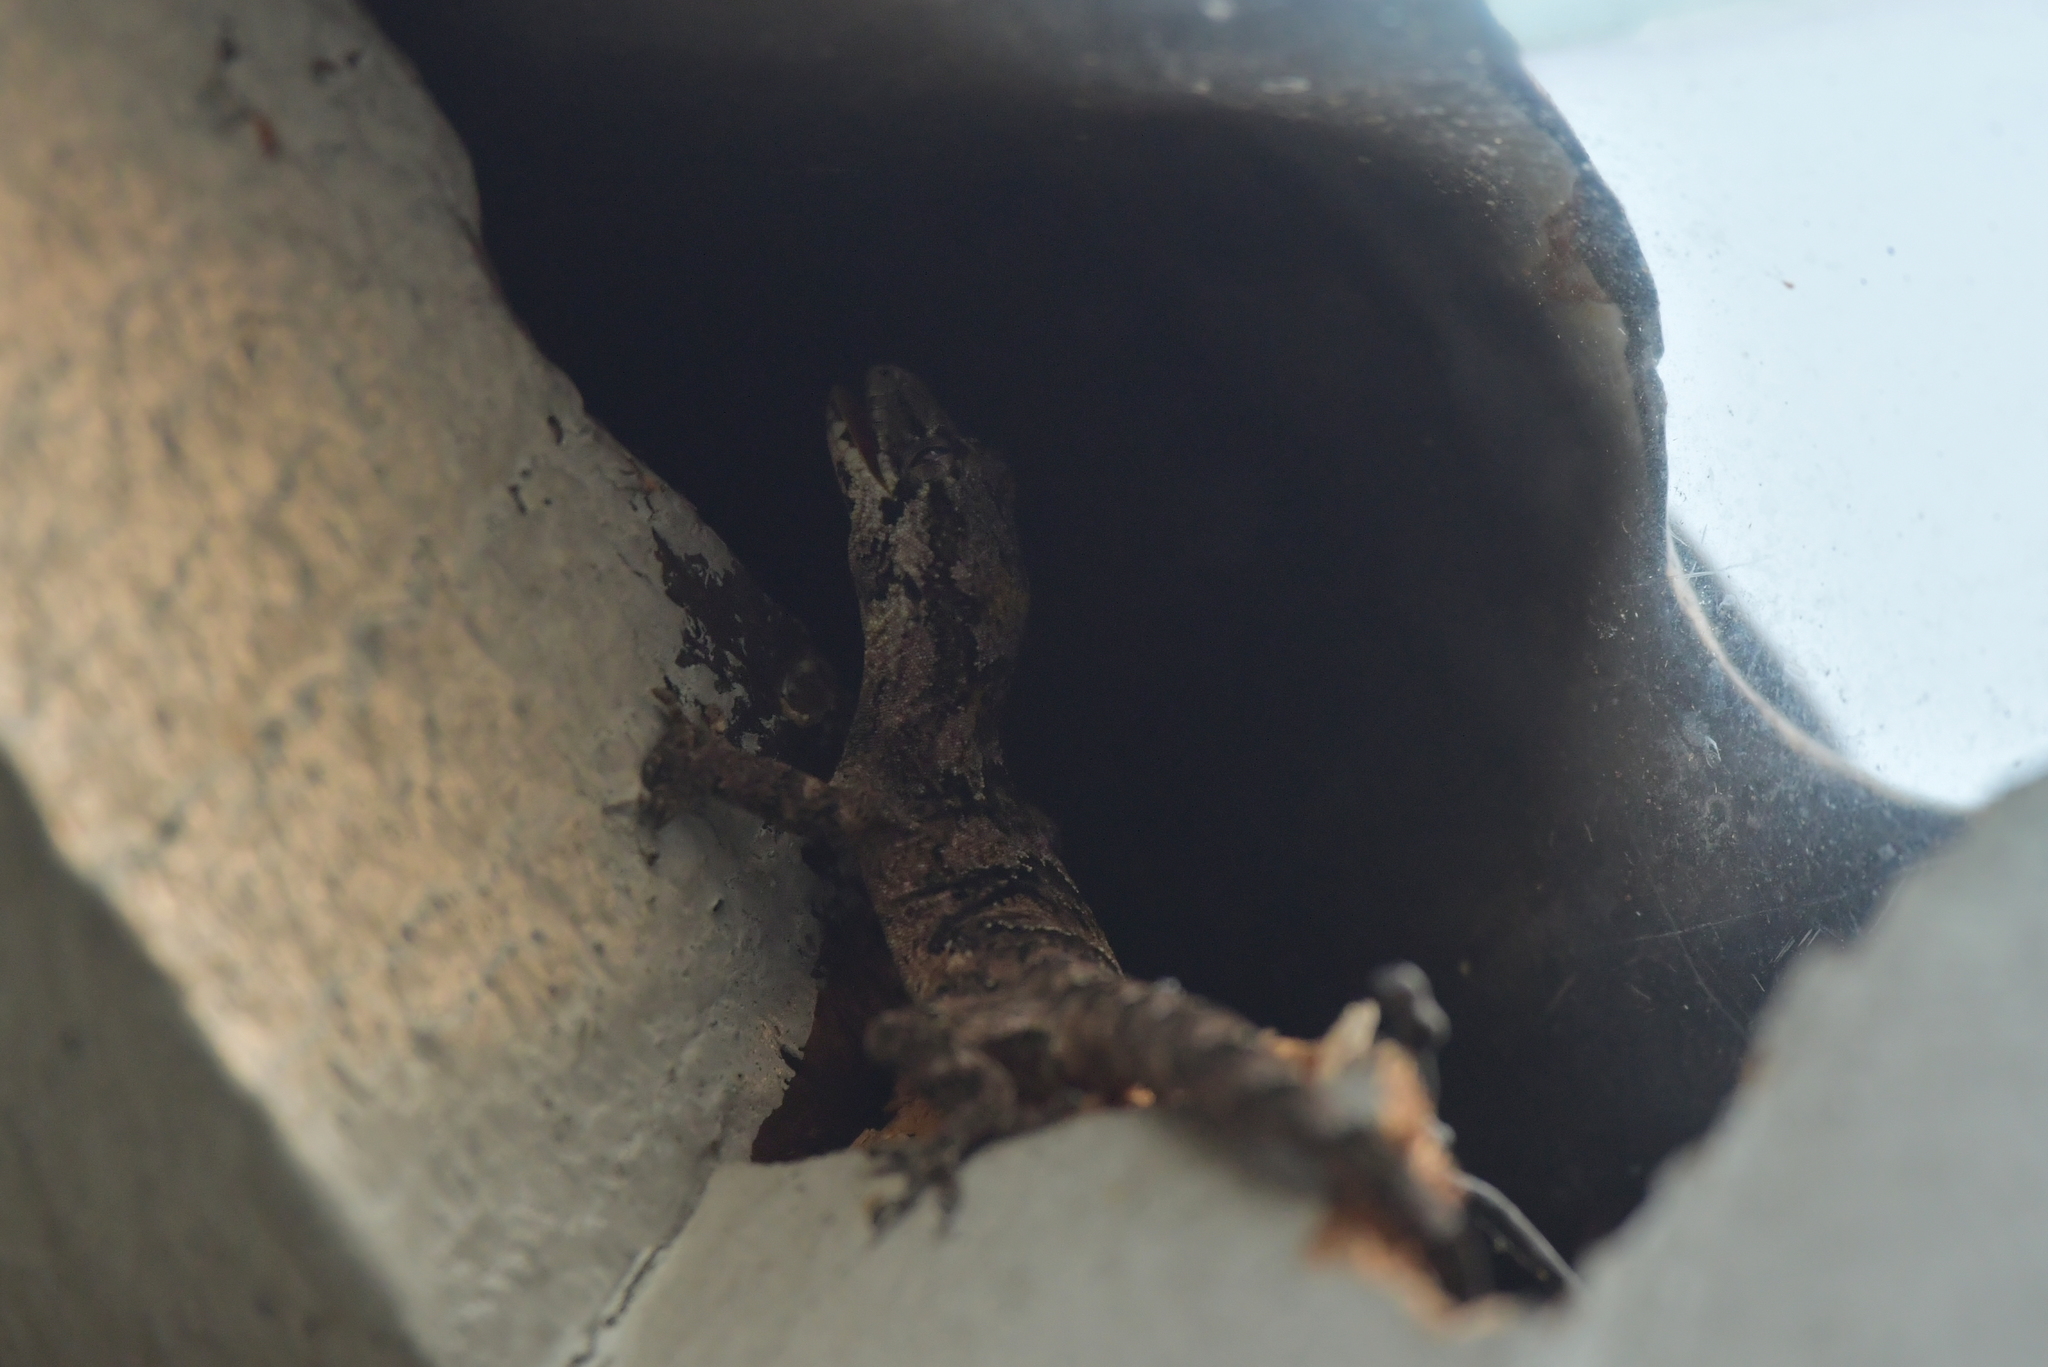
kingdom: Animalia
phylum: Chordata
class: Squamata
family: Diplodactylidae
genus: Mokopirirakau
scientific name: Mokopirirakau
